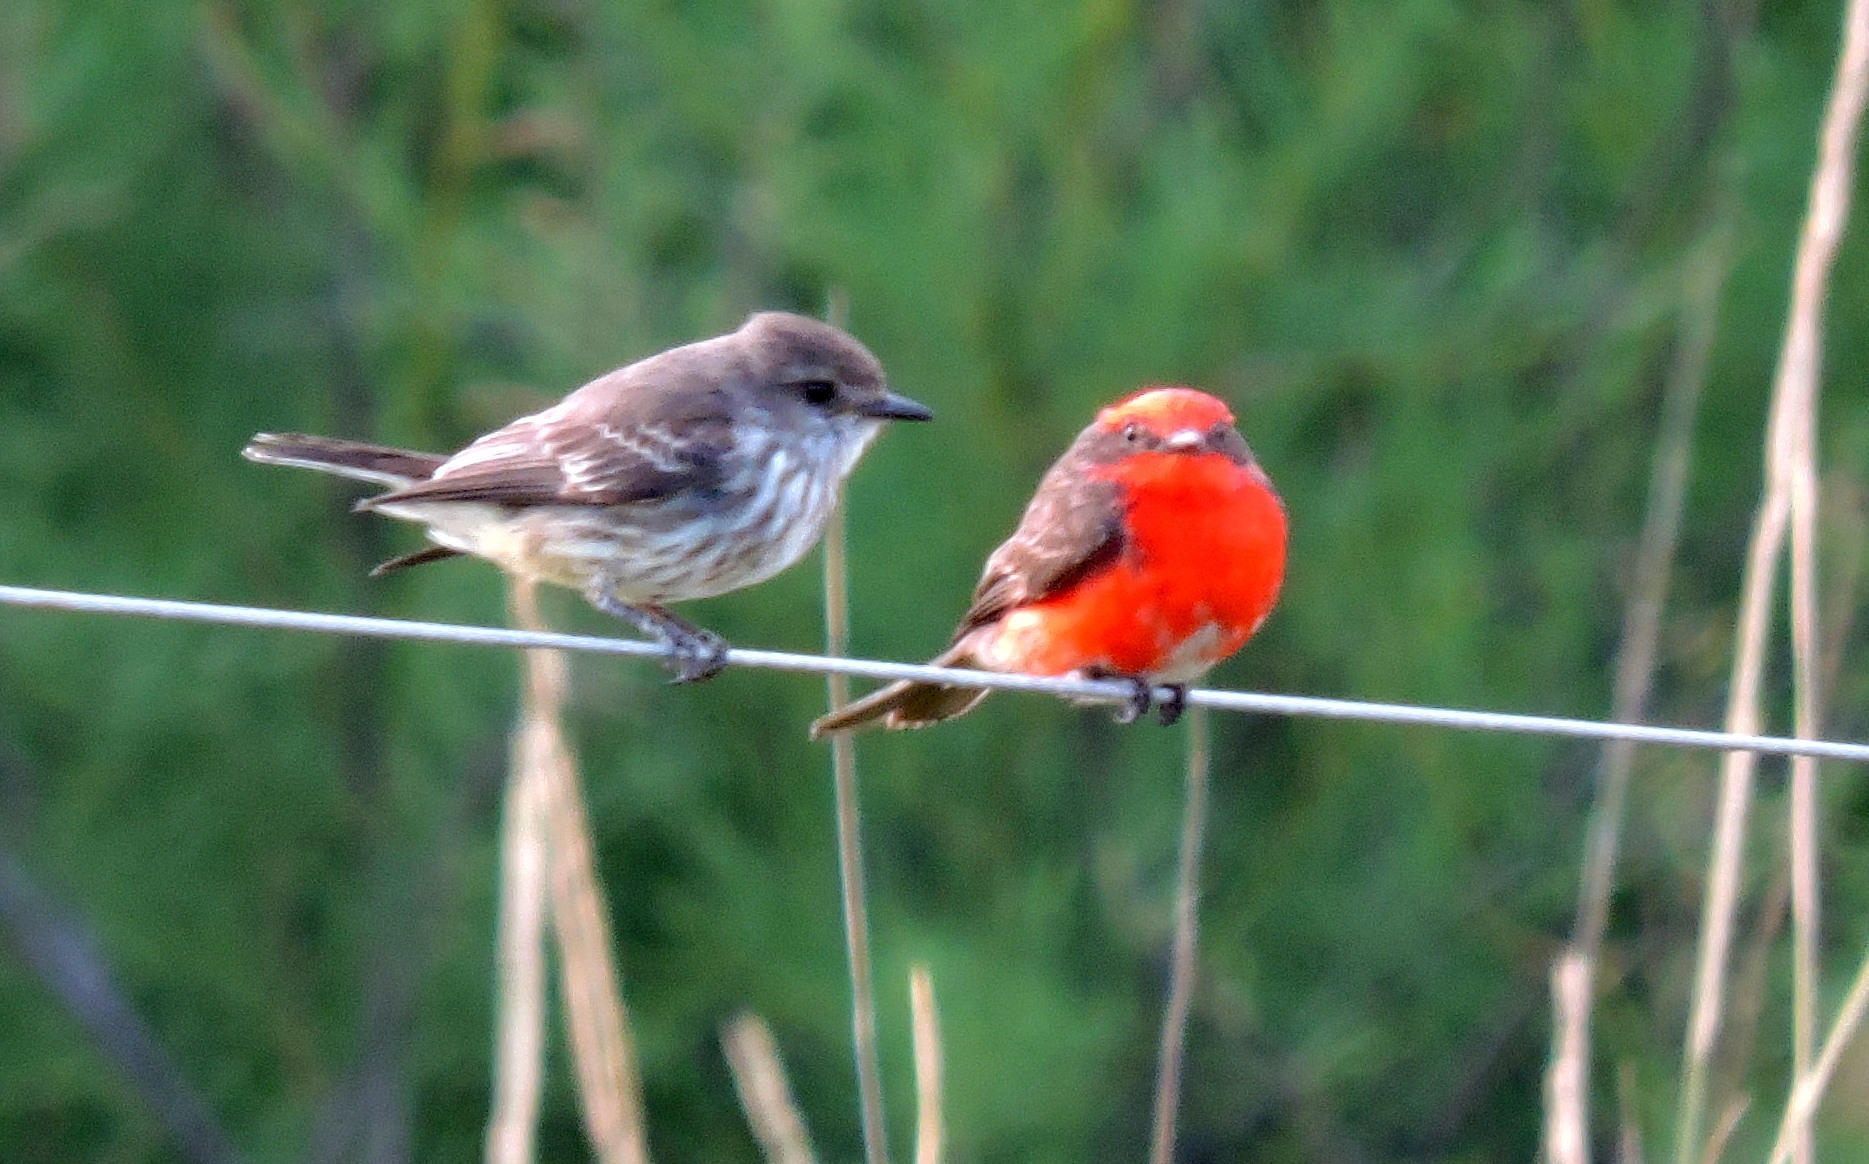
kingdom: Animalia
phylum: Chordata
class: Aves
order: Passeriformes
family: Tyrannidae
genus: Pyrocephalus
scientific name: Pyrocephalus rubinus
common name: Vermilion flycatcher
